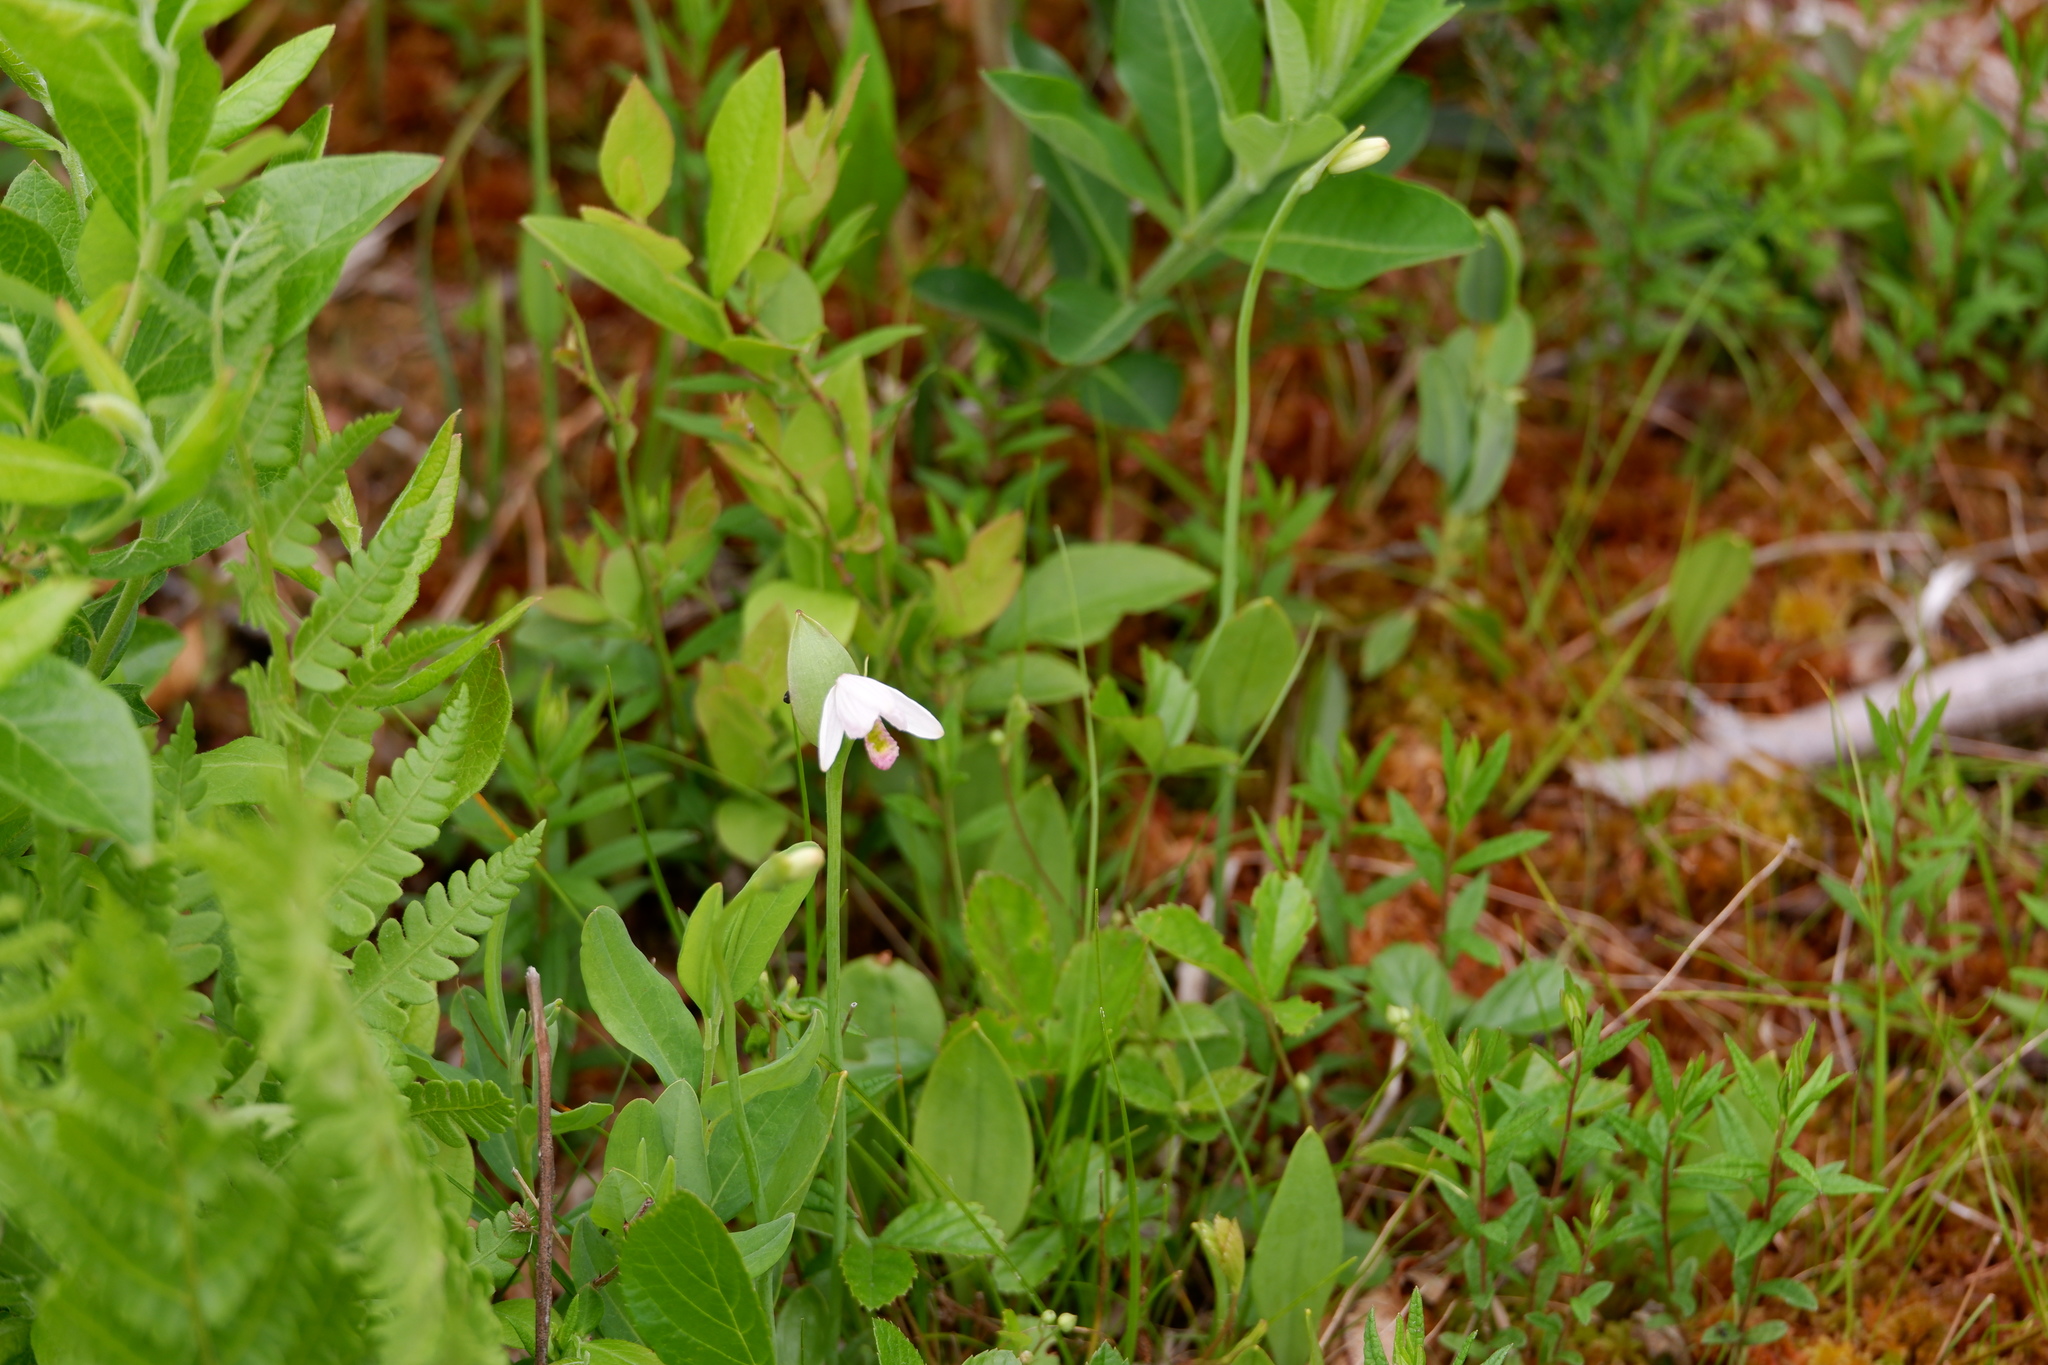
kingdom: Plantae
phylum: Tracheophyta
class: Liliopsida
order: Asparagales
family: Orchidaceae
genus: Pogonia
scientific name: Pogonia ophioglossoides
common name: Rose pogonia
